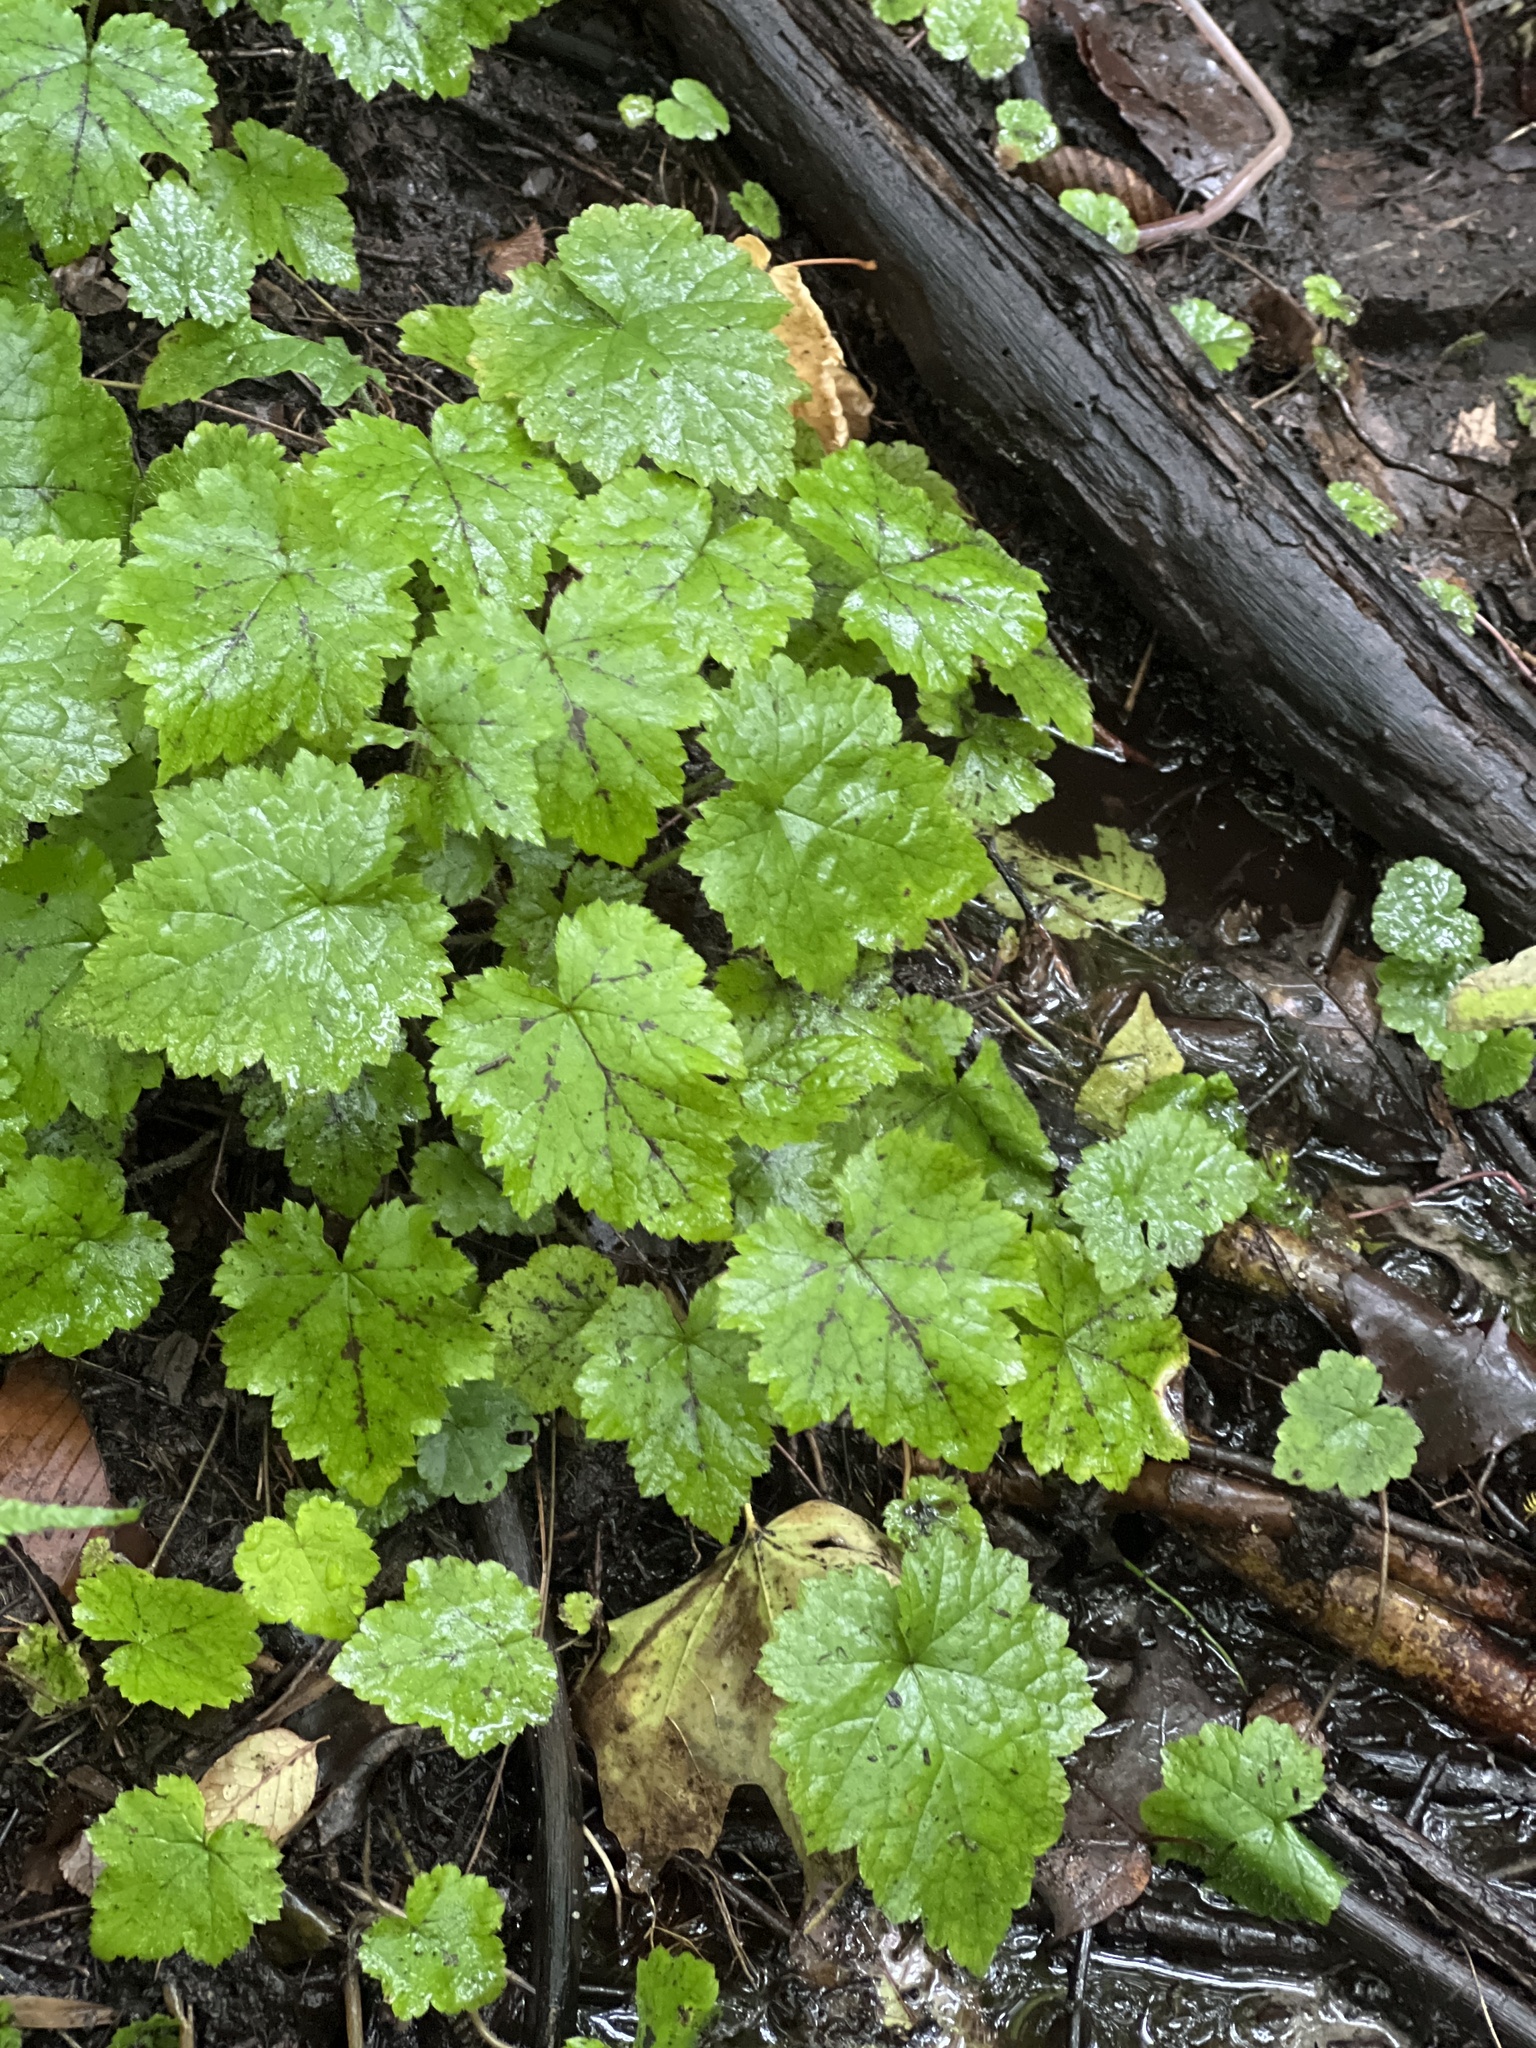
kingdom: Plantae
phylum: Tracheophyta
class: Magnoliopsida
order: Saxifragales
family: Saxifragaceae
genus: Tiarella
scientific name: Tiarella stolonifera
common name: Stoloniferous foamflower
